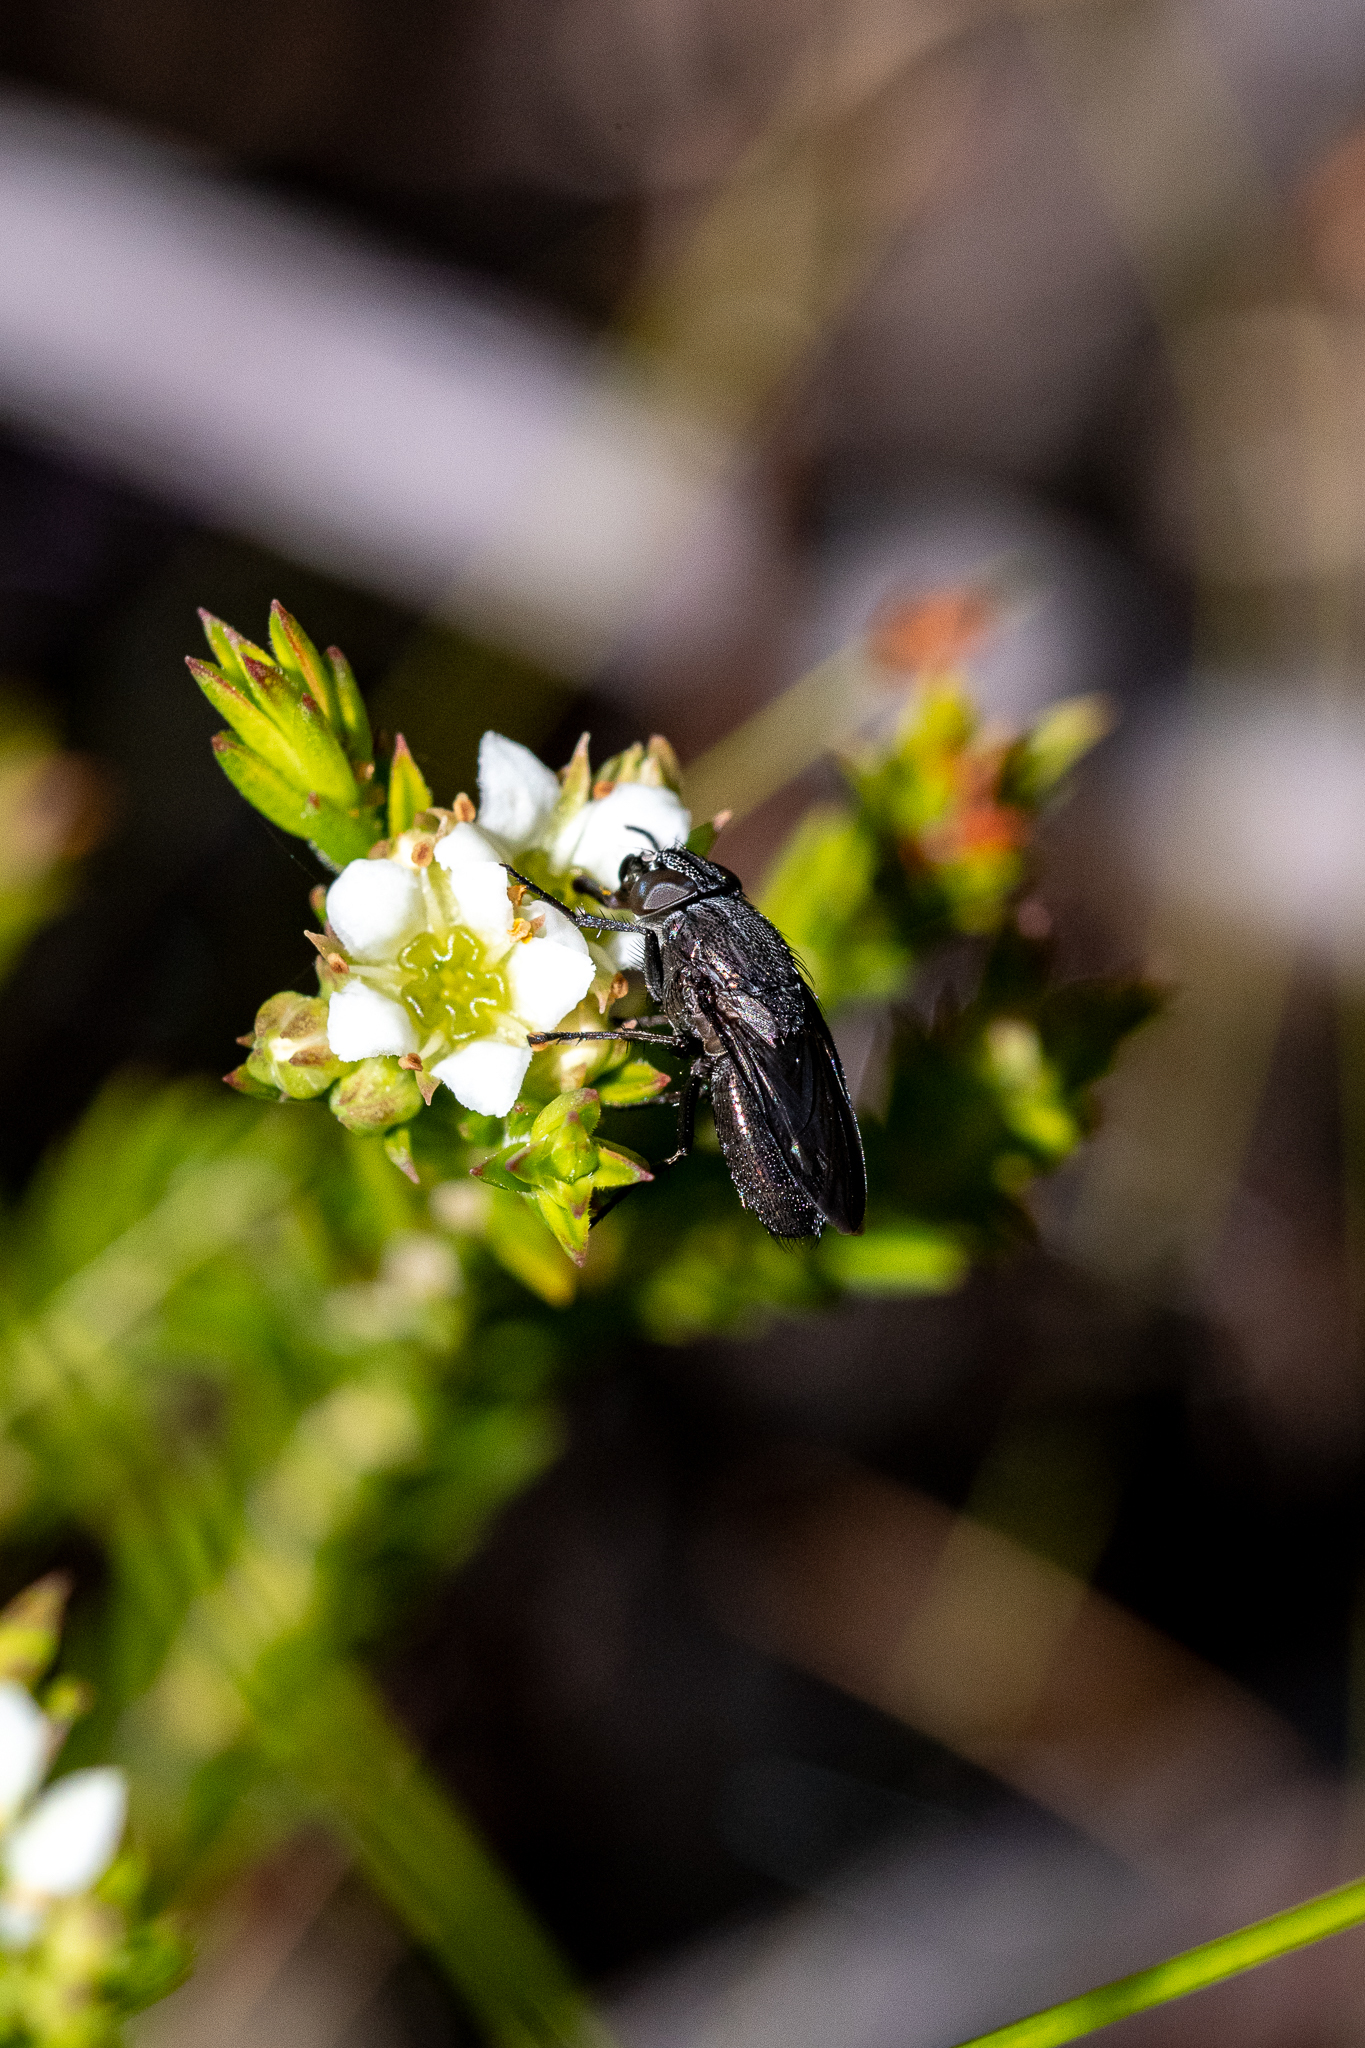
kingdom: Plantae
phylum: Tracheophyta
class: Magnoliopsida
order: Sapindales
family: Rutaceae
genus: Diosma
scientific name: Diosma oppositifolia
